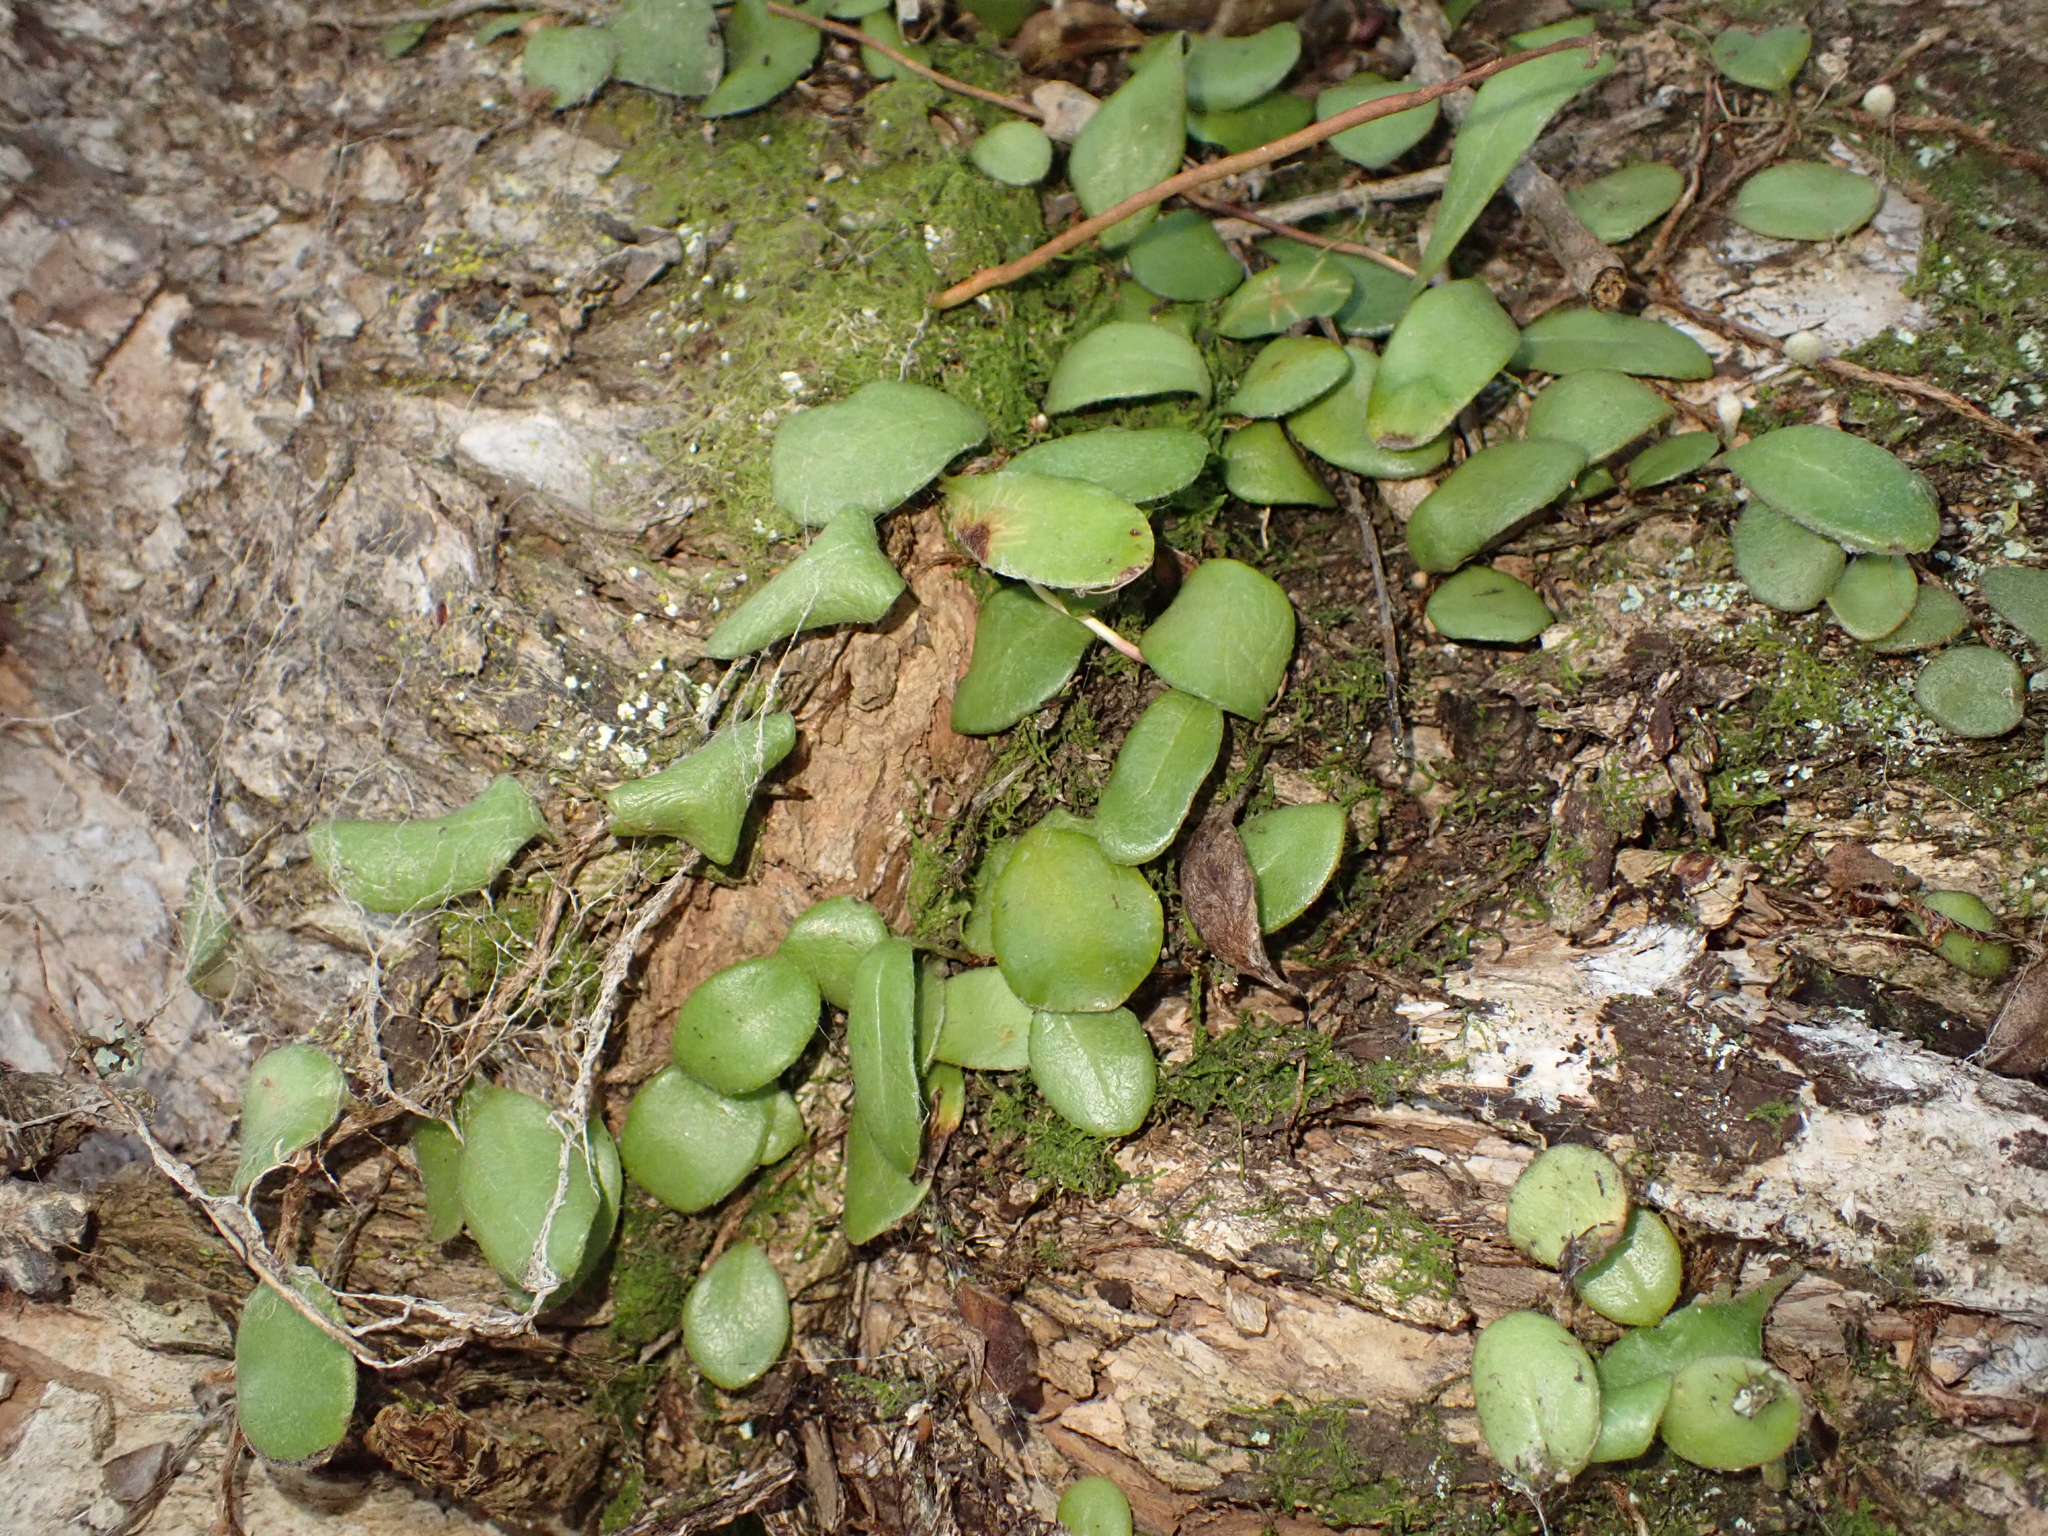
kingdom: Plantae
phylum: Tracheophyta
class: Polypodiopsida
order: Polypodiales
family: Polypodiaceae
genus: Pyrrosia
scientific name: Pyrrosia eleagnifolia
